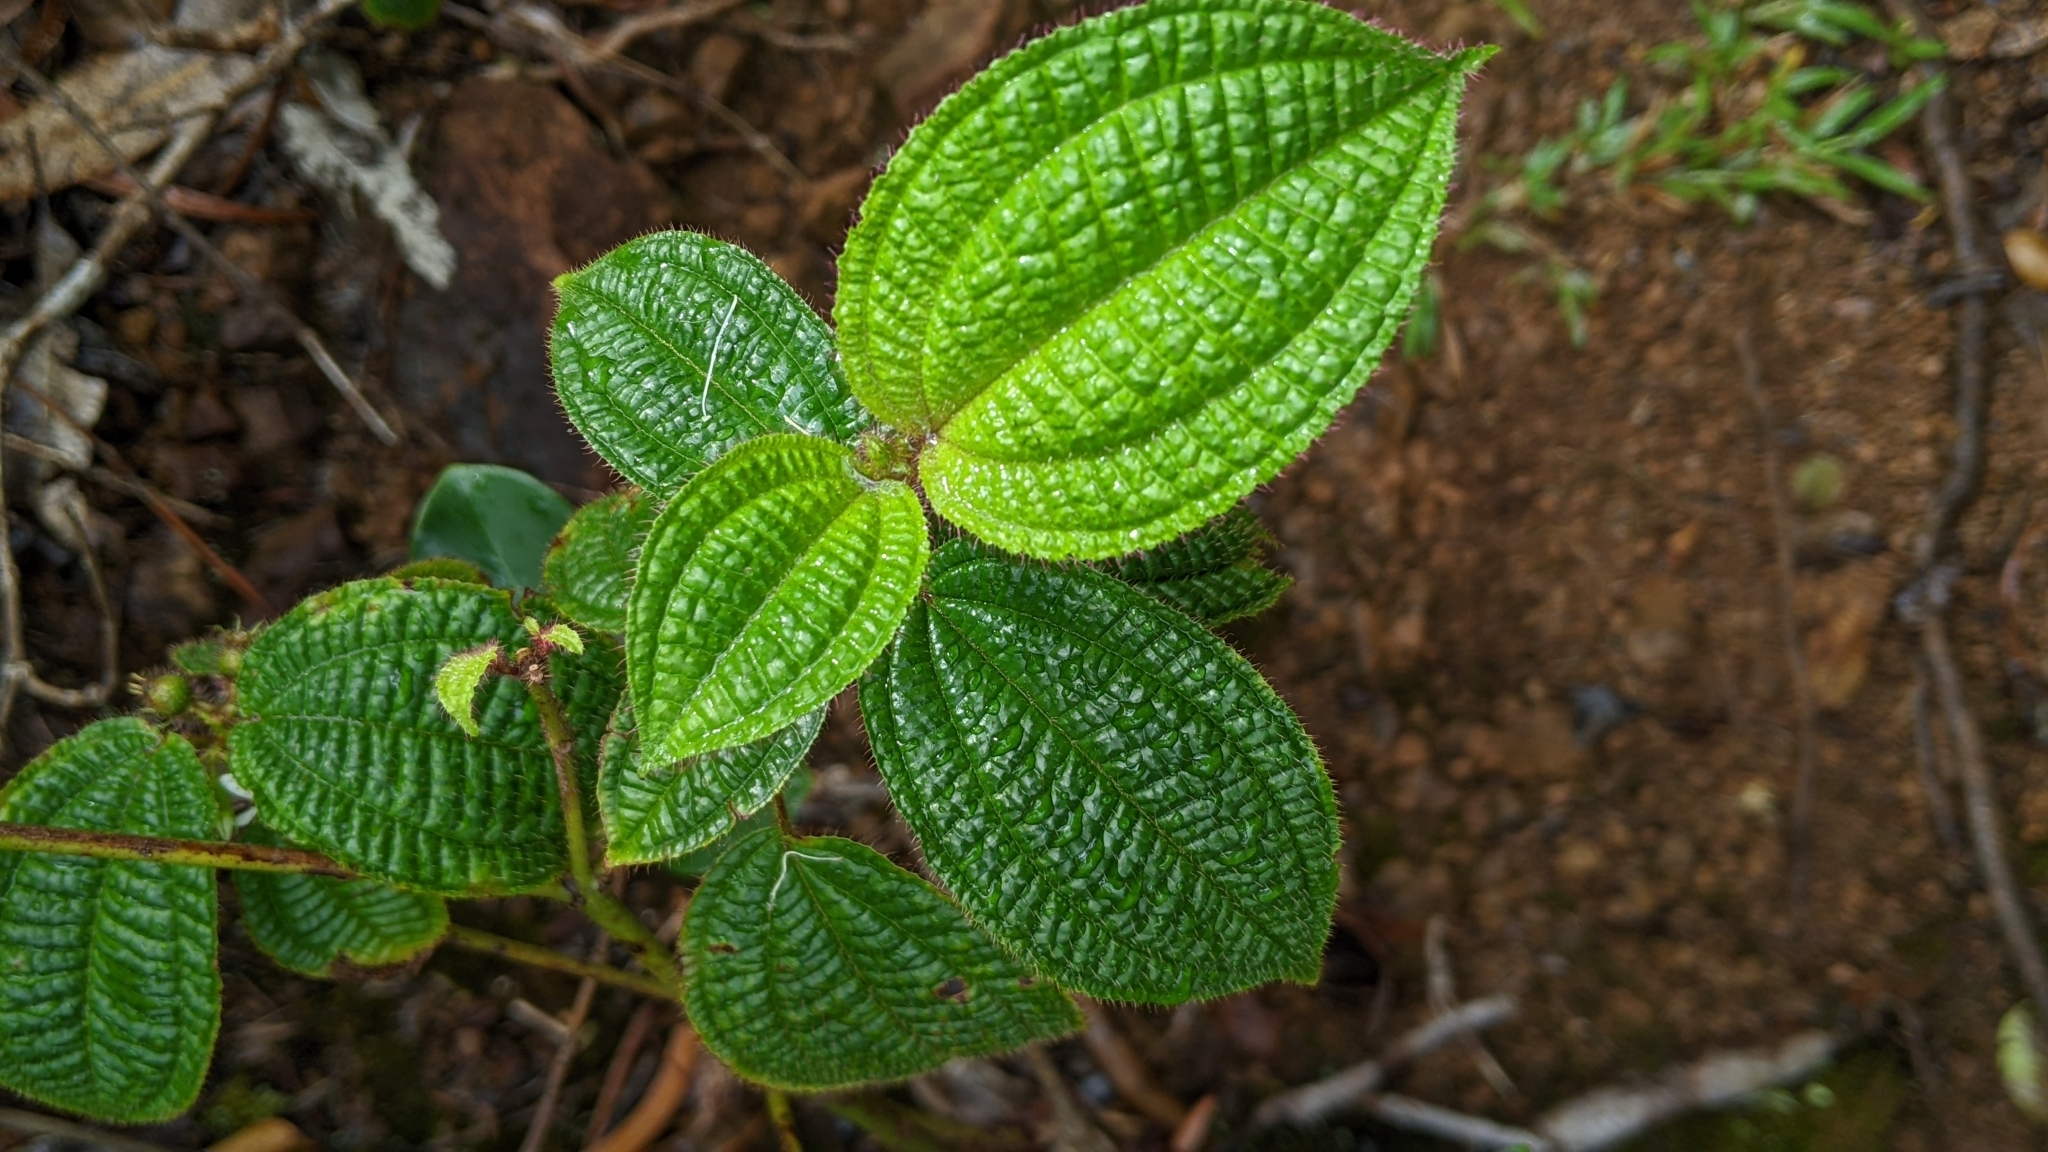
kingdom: Plantae
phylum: Tracheophyta
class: Magnoliopsida
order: Myrtales
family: Melastomataceae
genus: Miconia
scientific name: Miconia crenata
